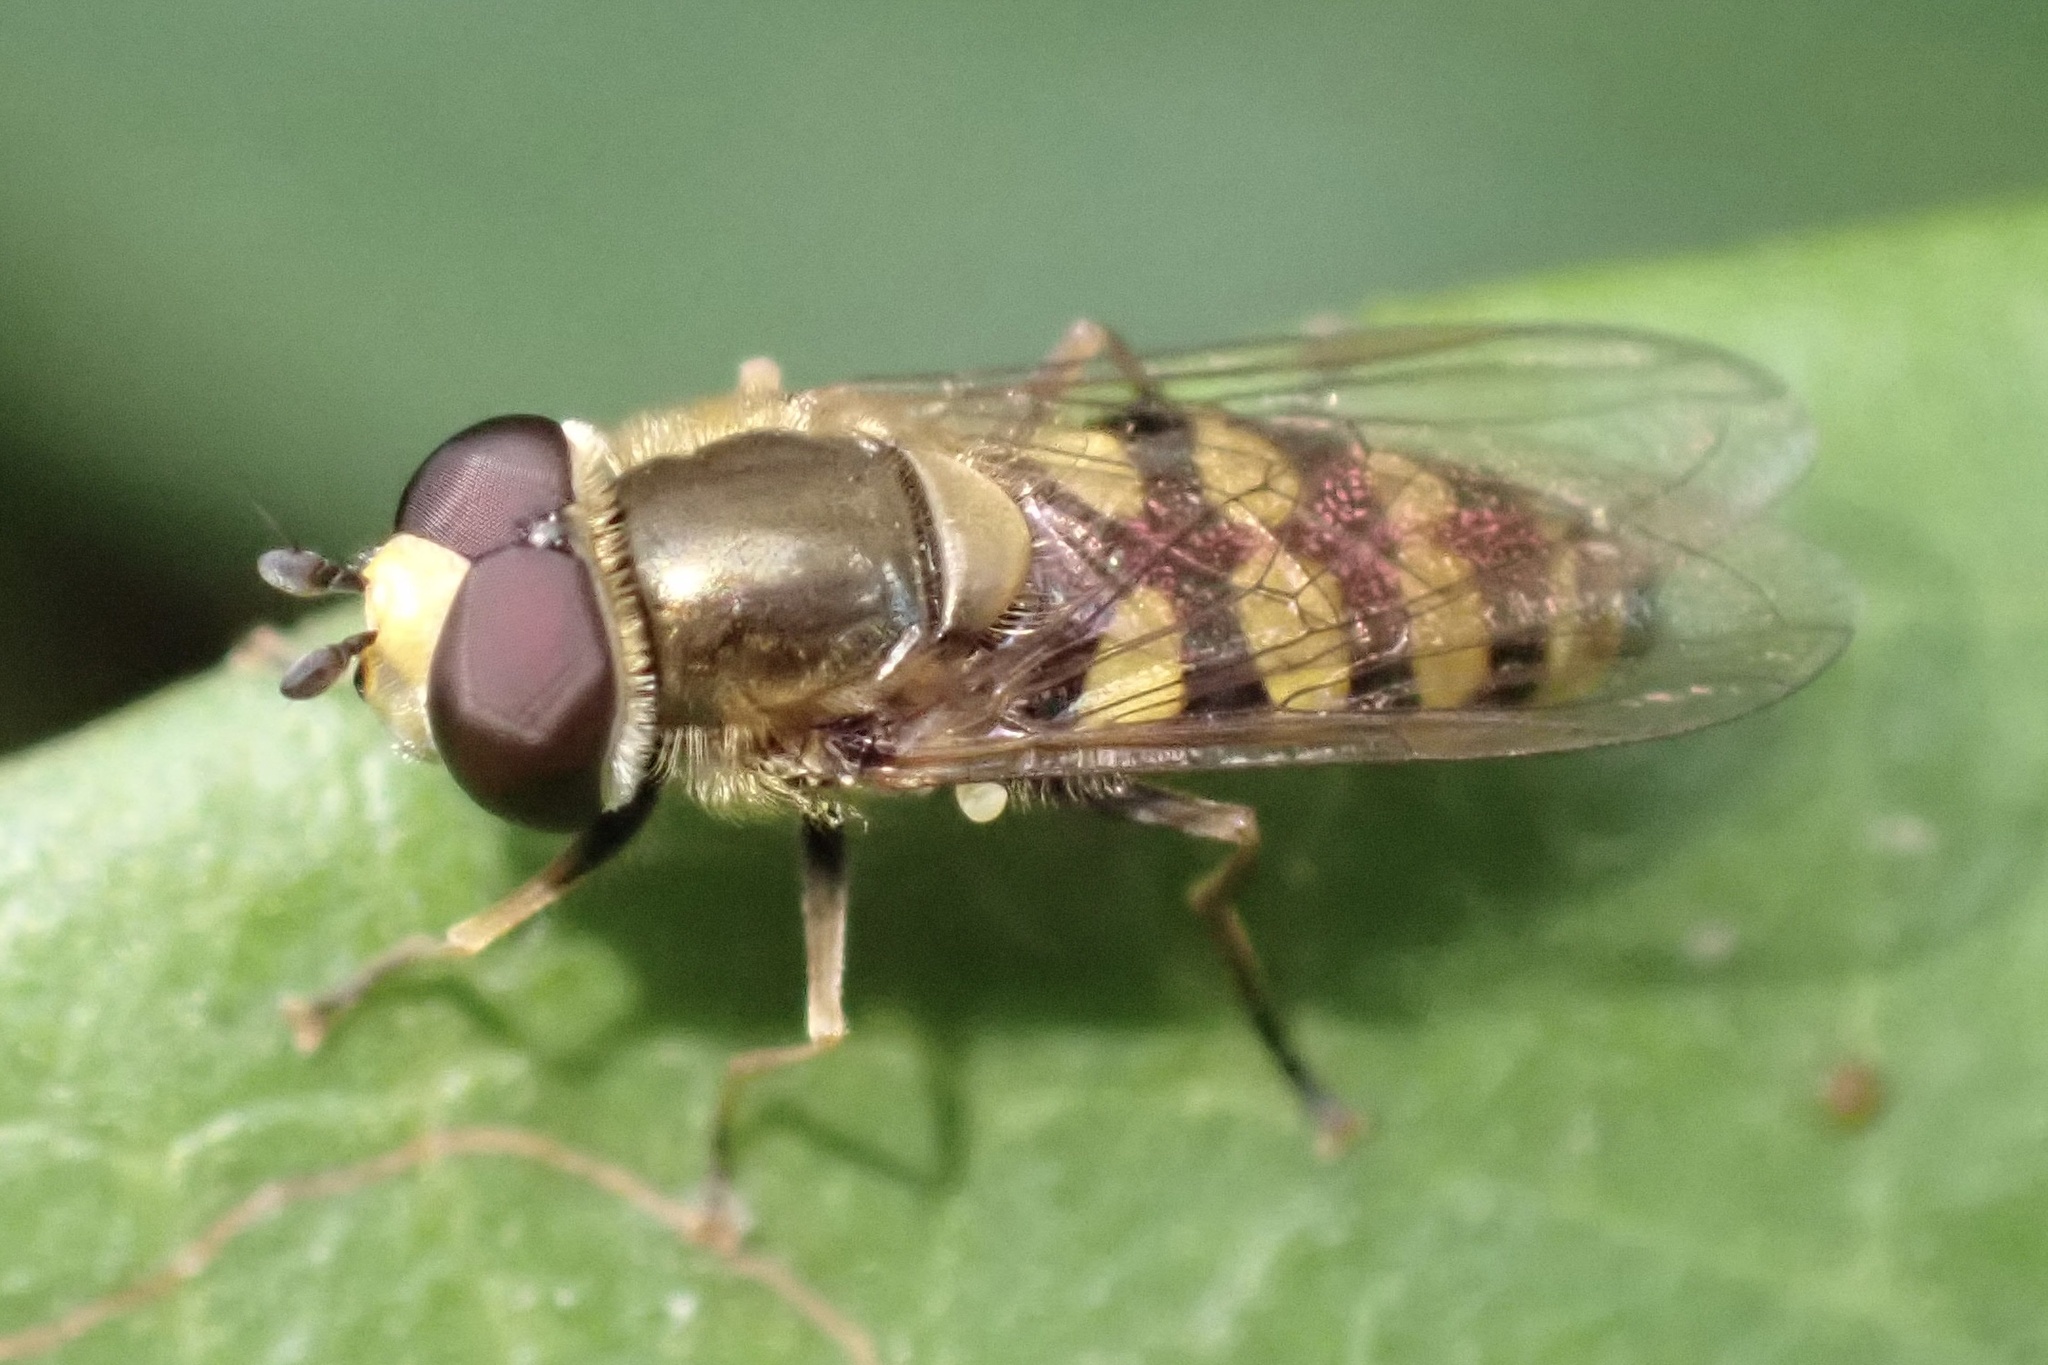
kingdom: Animalia
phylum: Arthropoda
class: Insecta
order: Diptera
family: Syrphidae
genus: Eupeodes
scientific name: Eupeodes corollae
